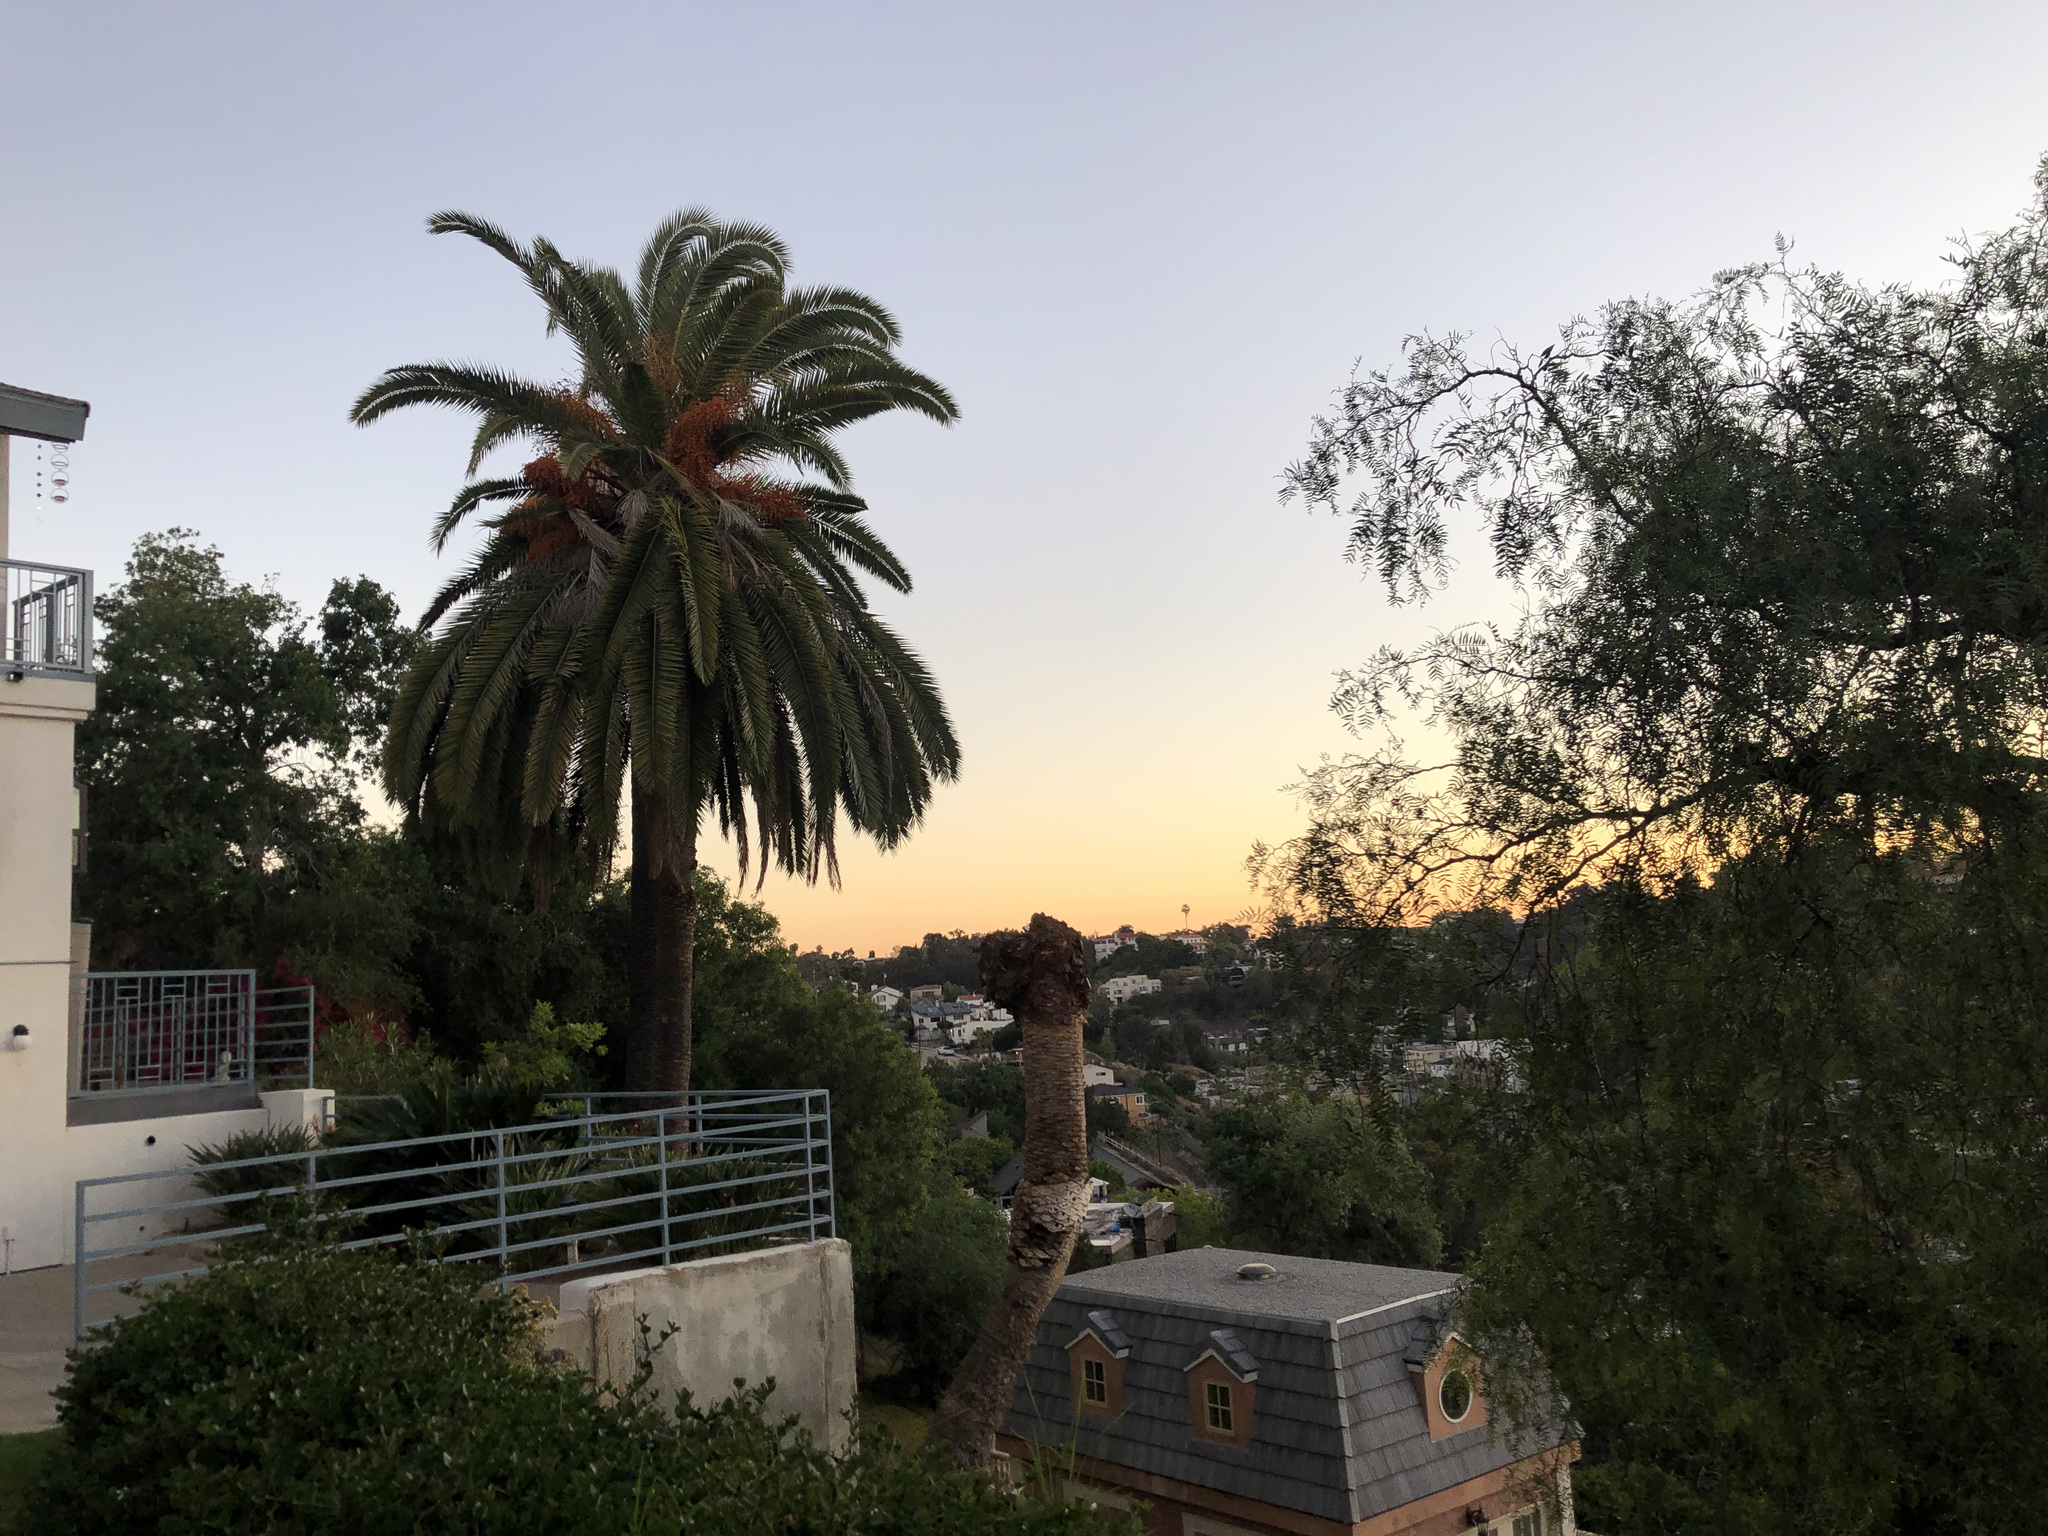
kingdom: Plantae
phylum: Tracheophyta
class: Liliopsida
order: Arecales
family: Arecaceae
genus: Phoenix
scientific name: Phoenix canariensis
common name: Canary island date palm
